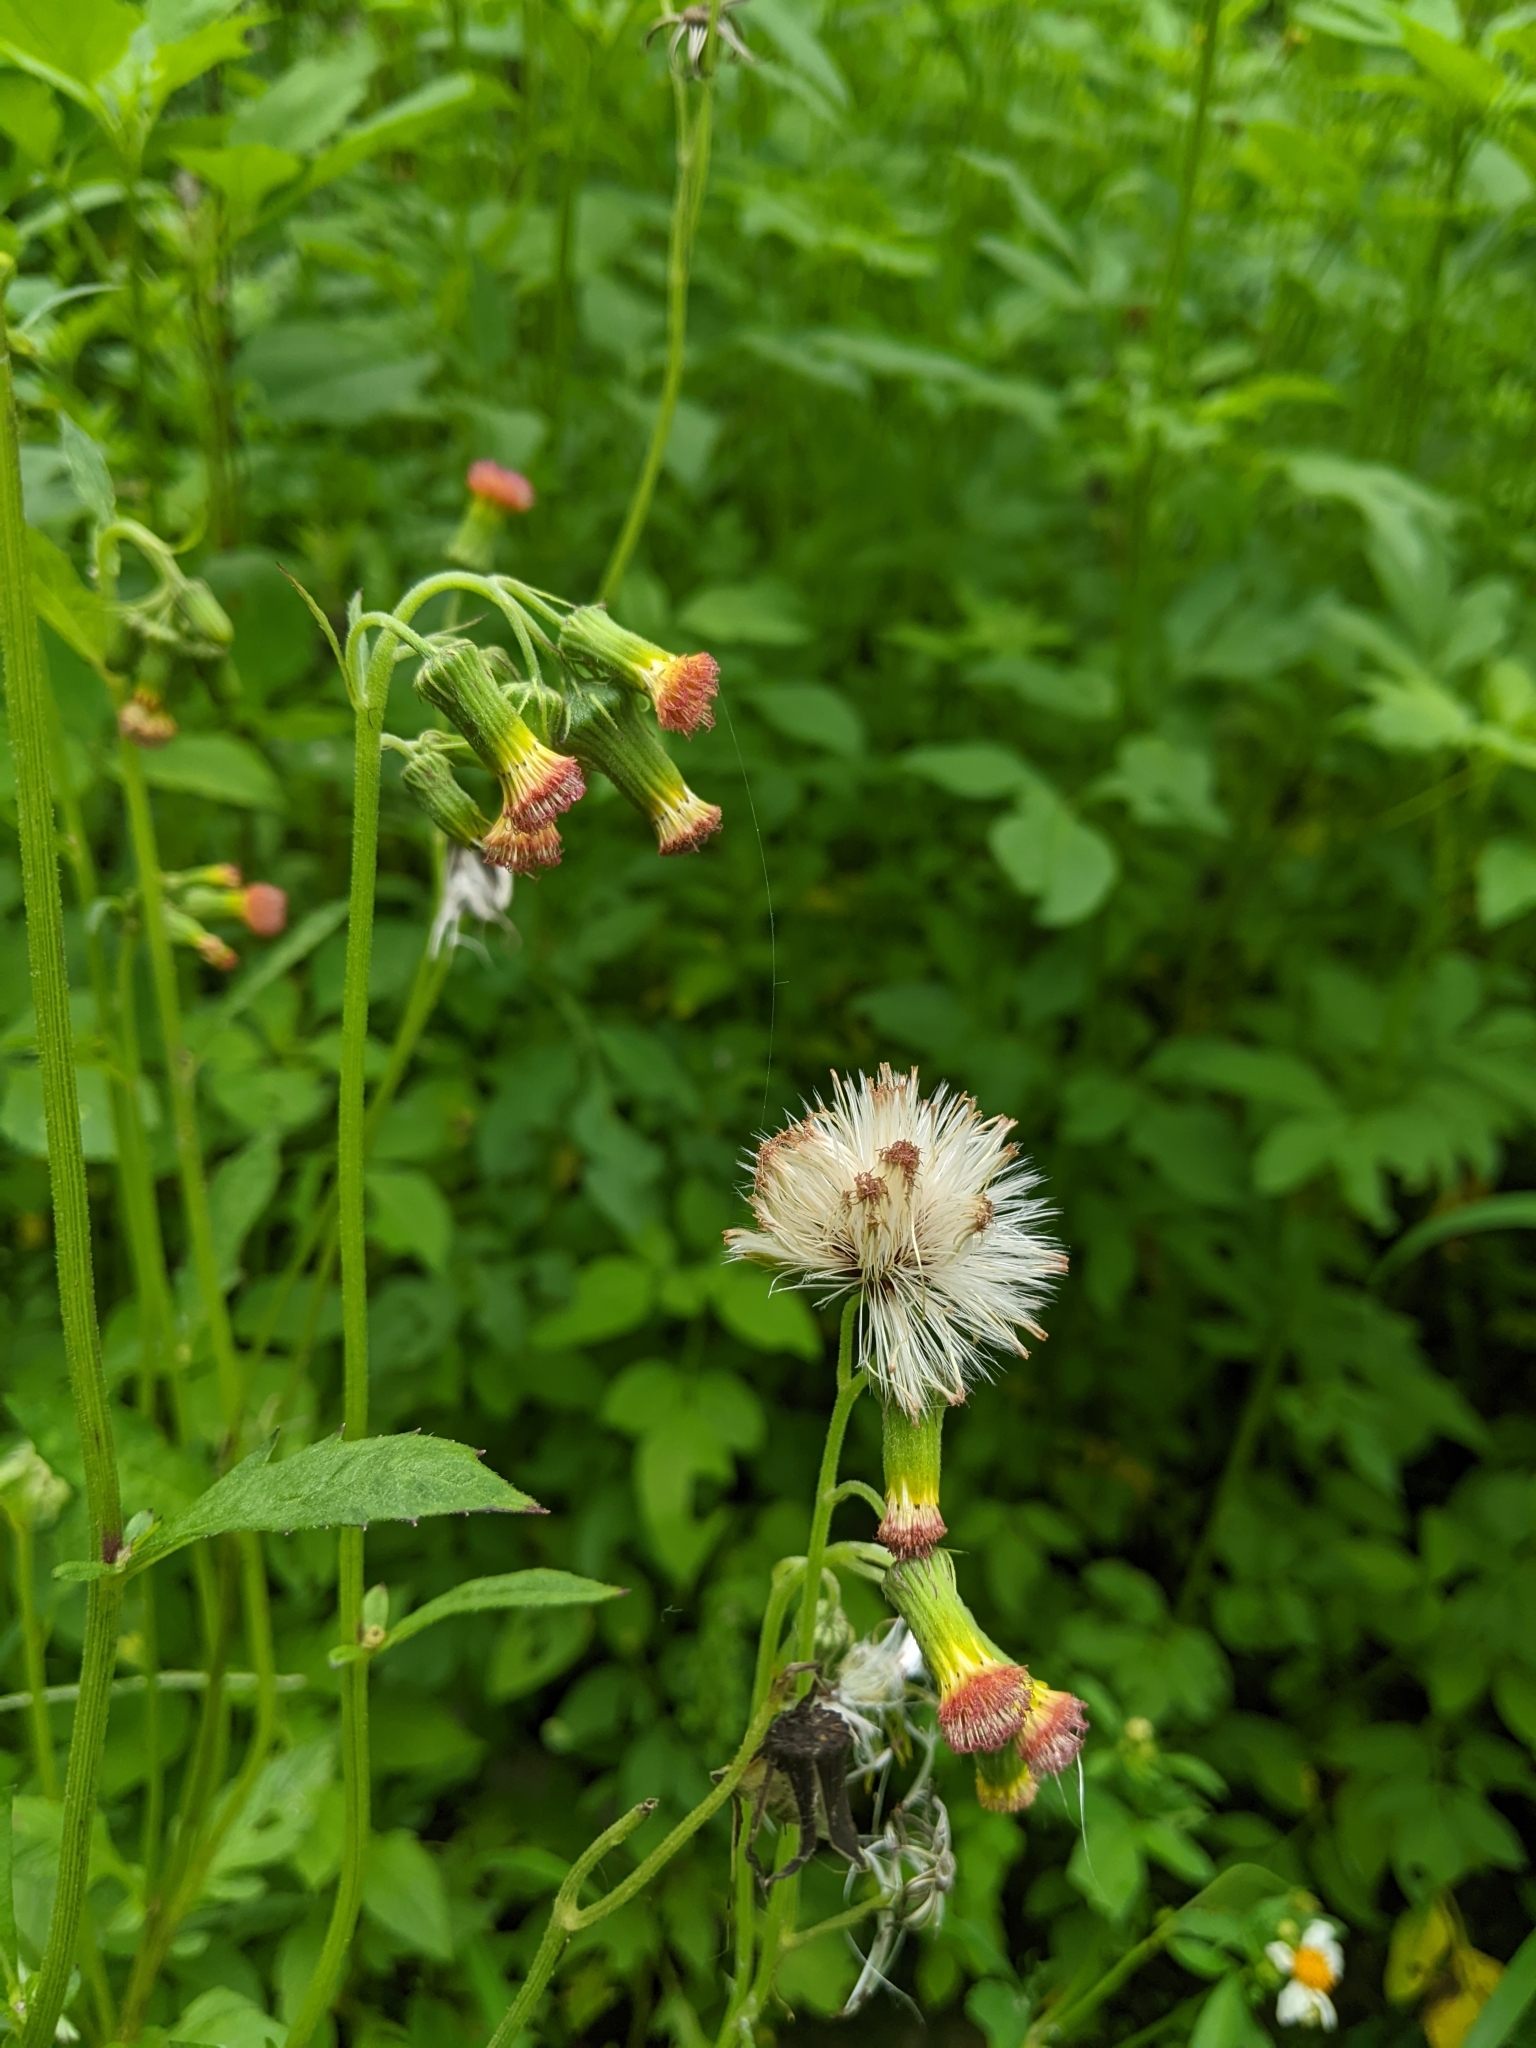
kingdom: Plantae
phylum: Tracheophyta
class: Magnoliopsida
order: Asterales
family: Asteraceae
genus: Crassocephalum
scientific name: Crassocephalum crepidioides
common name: Redflower ragleaf
